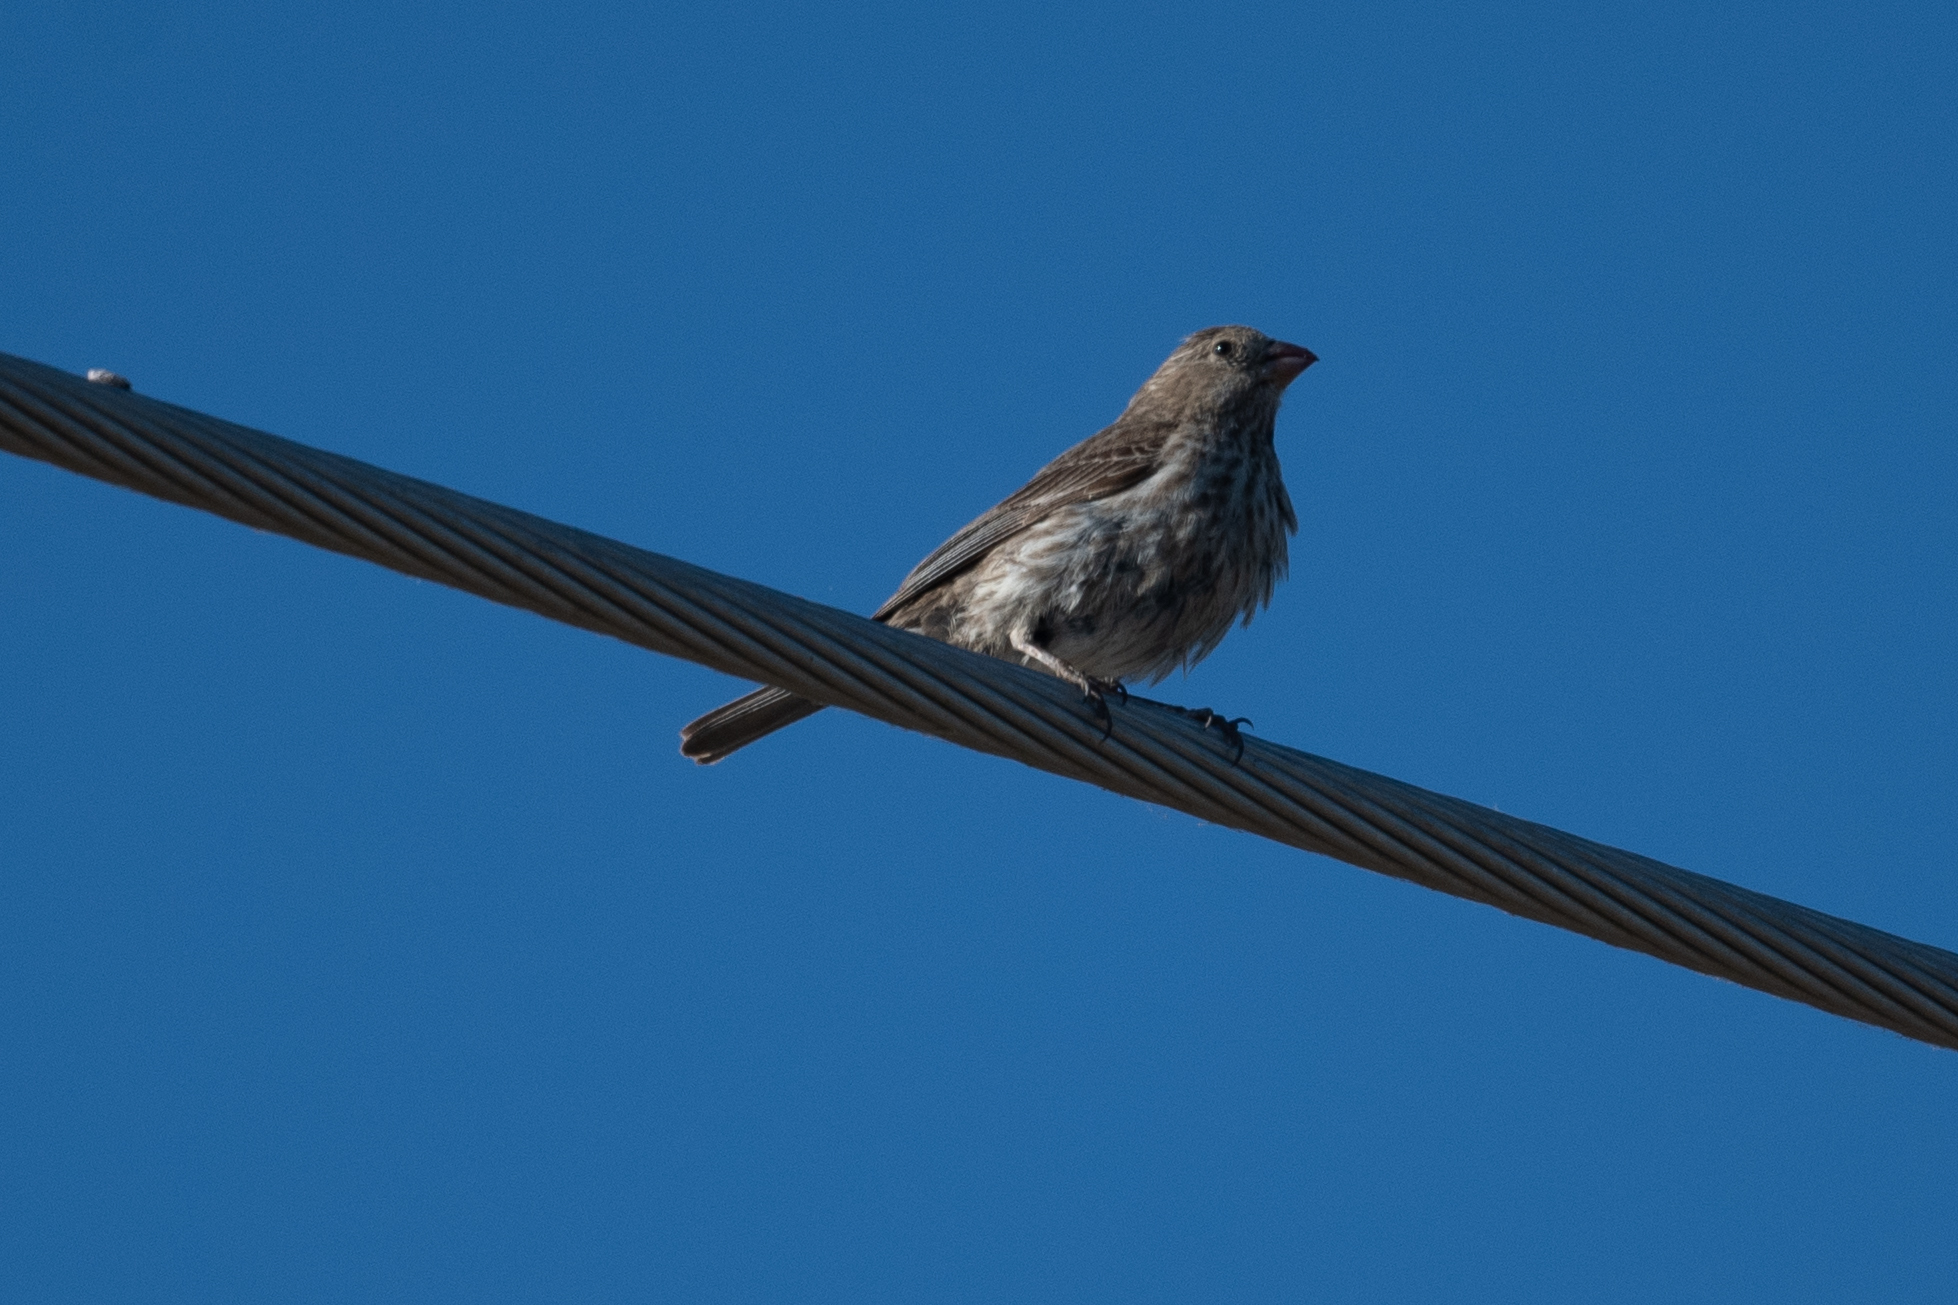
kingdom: Animalia
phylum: Chordata
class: Aves
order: Passeriformes
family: Fringillidae
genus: Haemorhous
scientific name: Haemorhous mexicanus
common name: House finch
